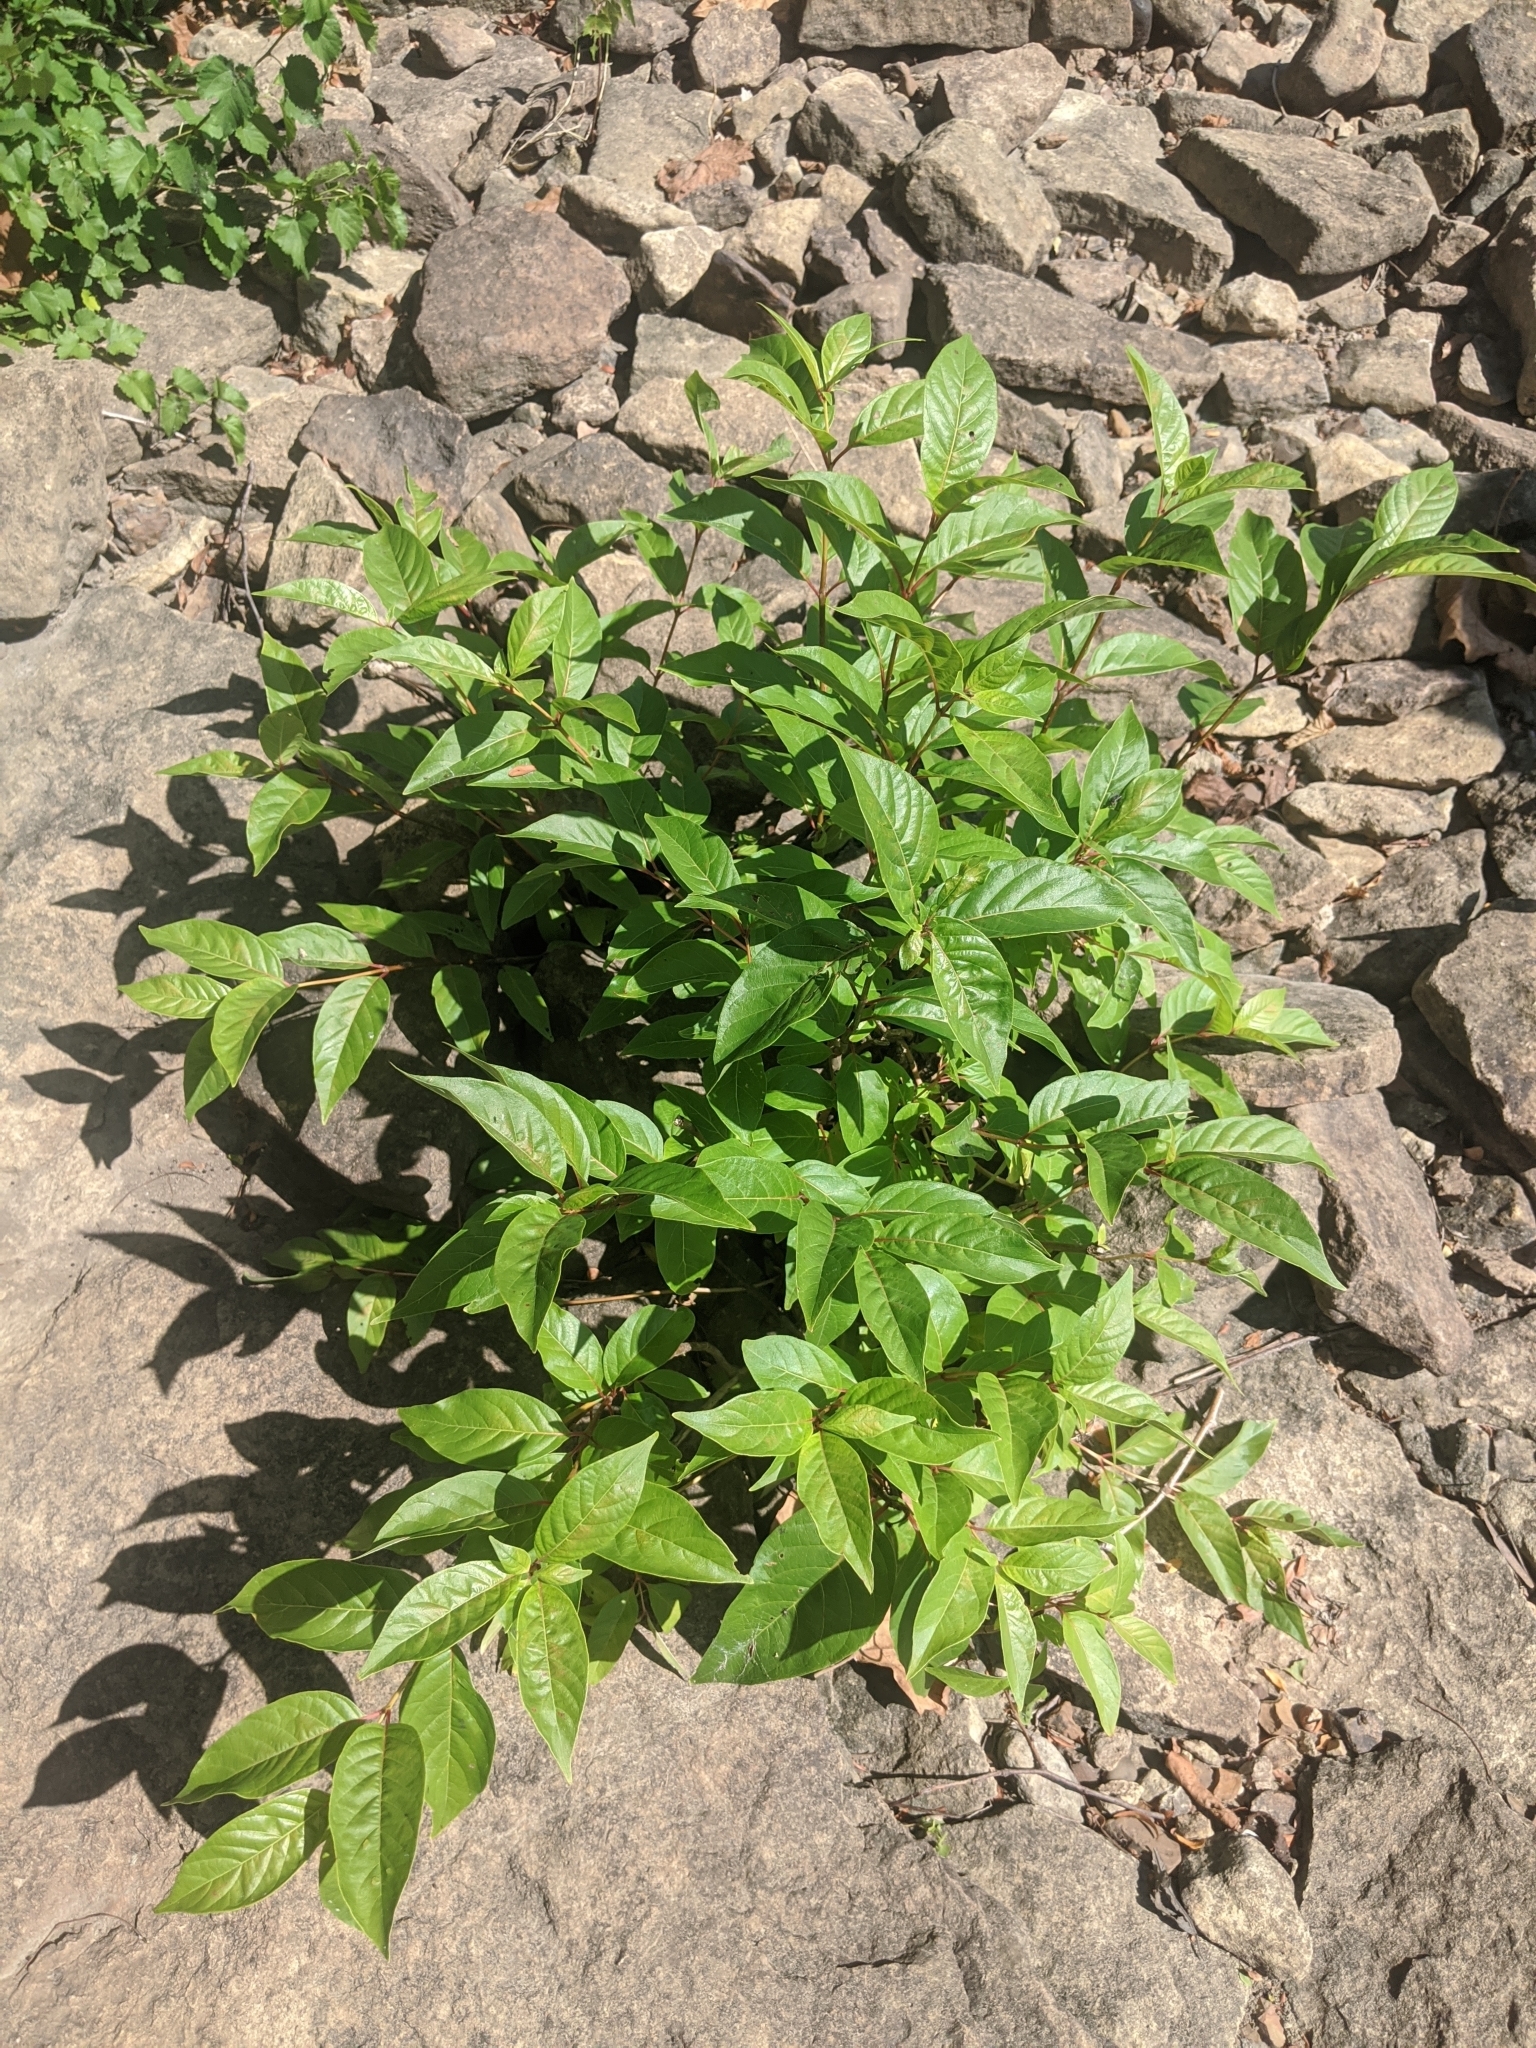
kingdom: Plantae
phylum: Tracheophyta
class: Magnoliopsida
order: Gentianales
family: Rubiaceae
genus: Cephalanthus
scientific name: Cephalanthus occidentalis
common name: Button-willow
